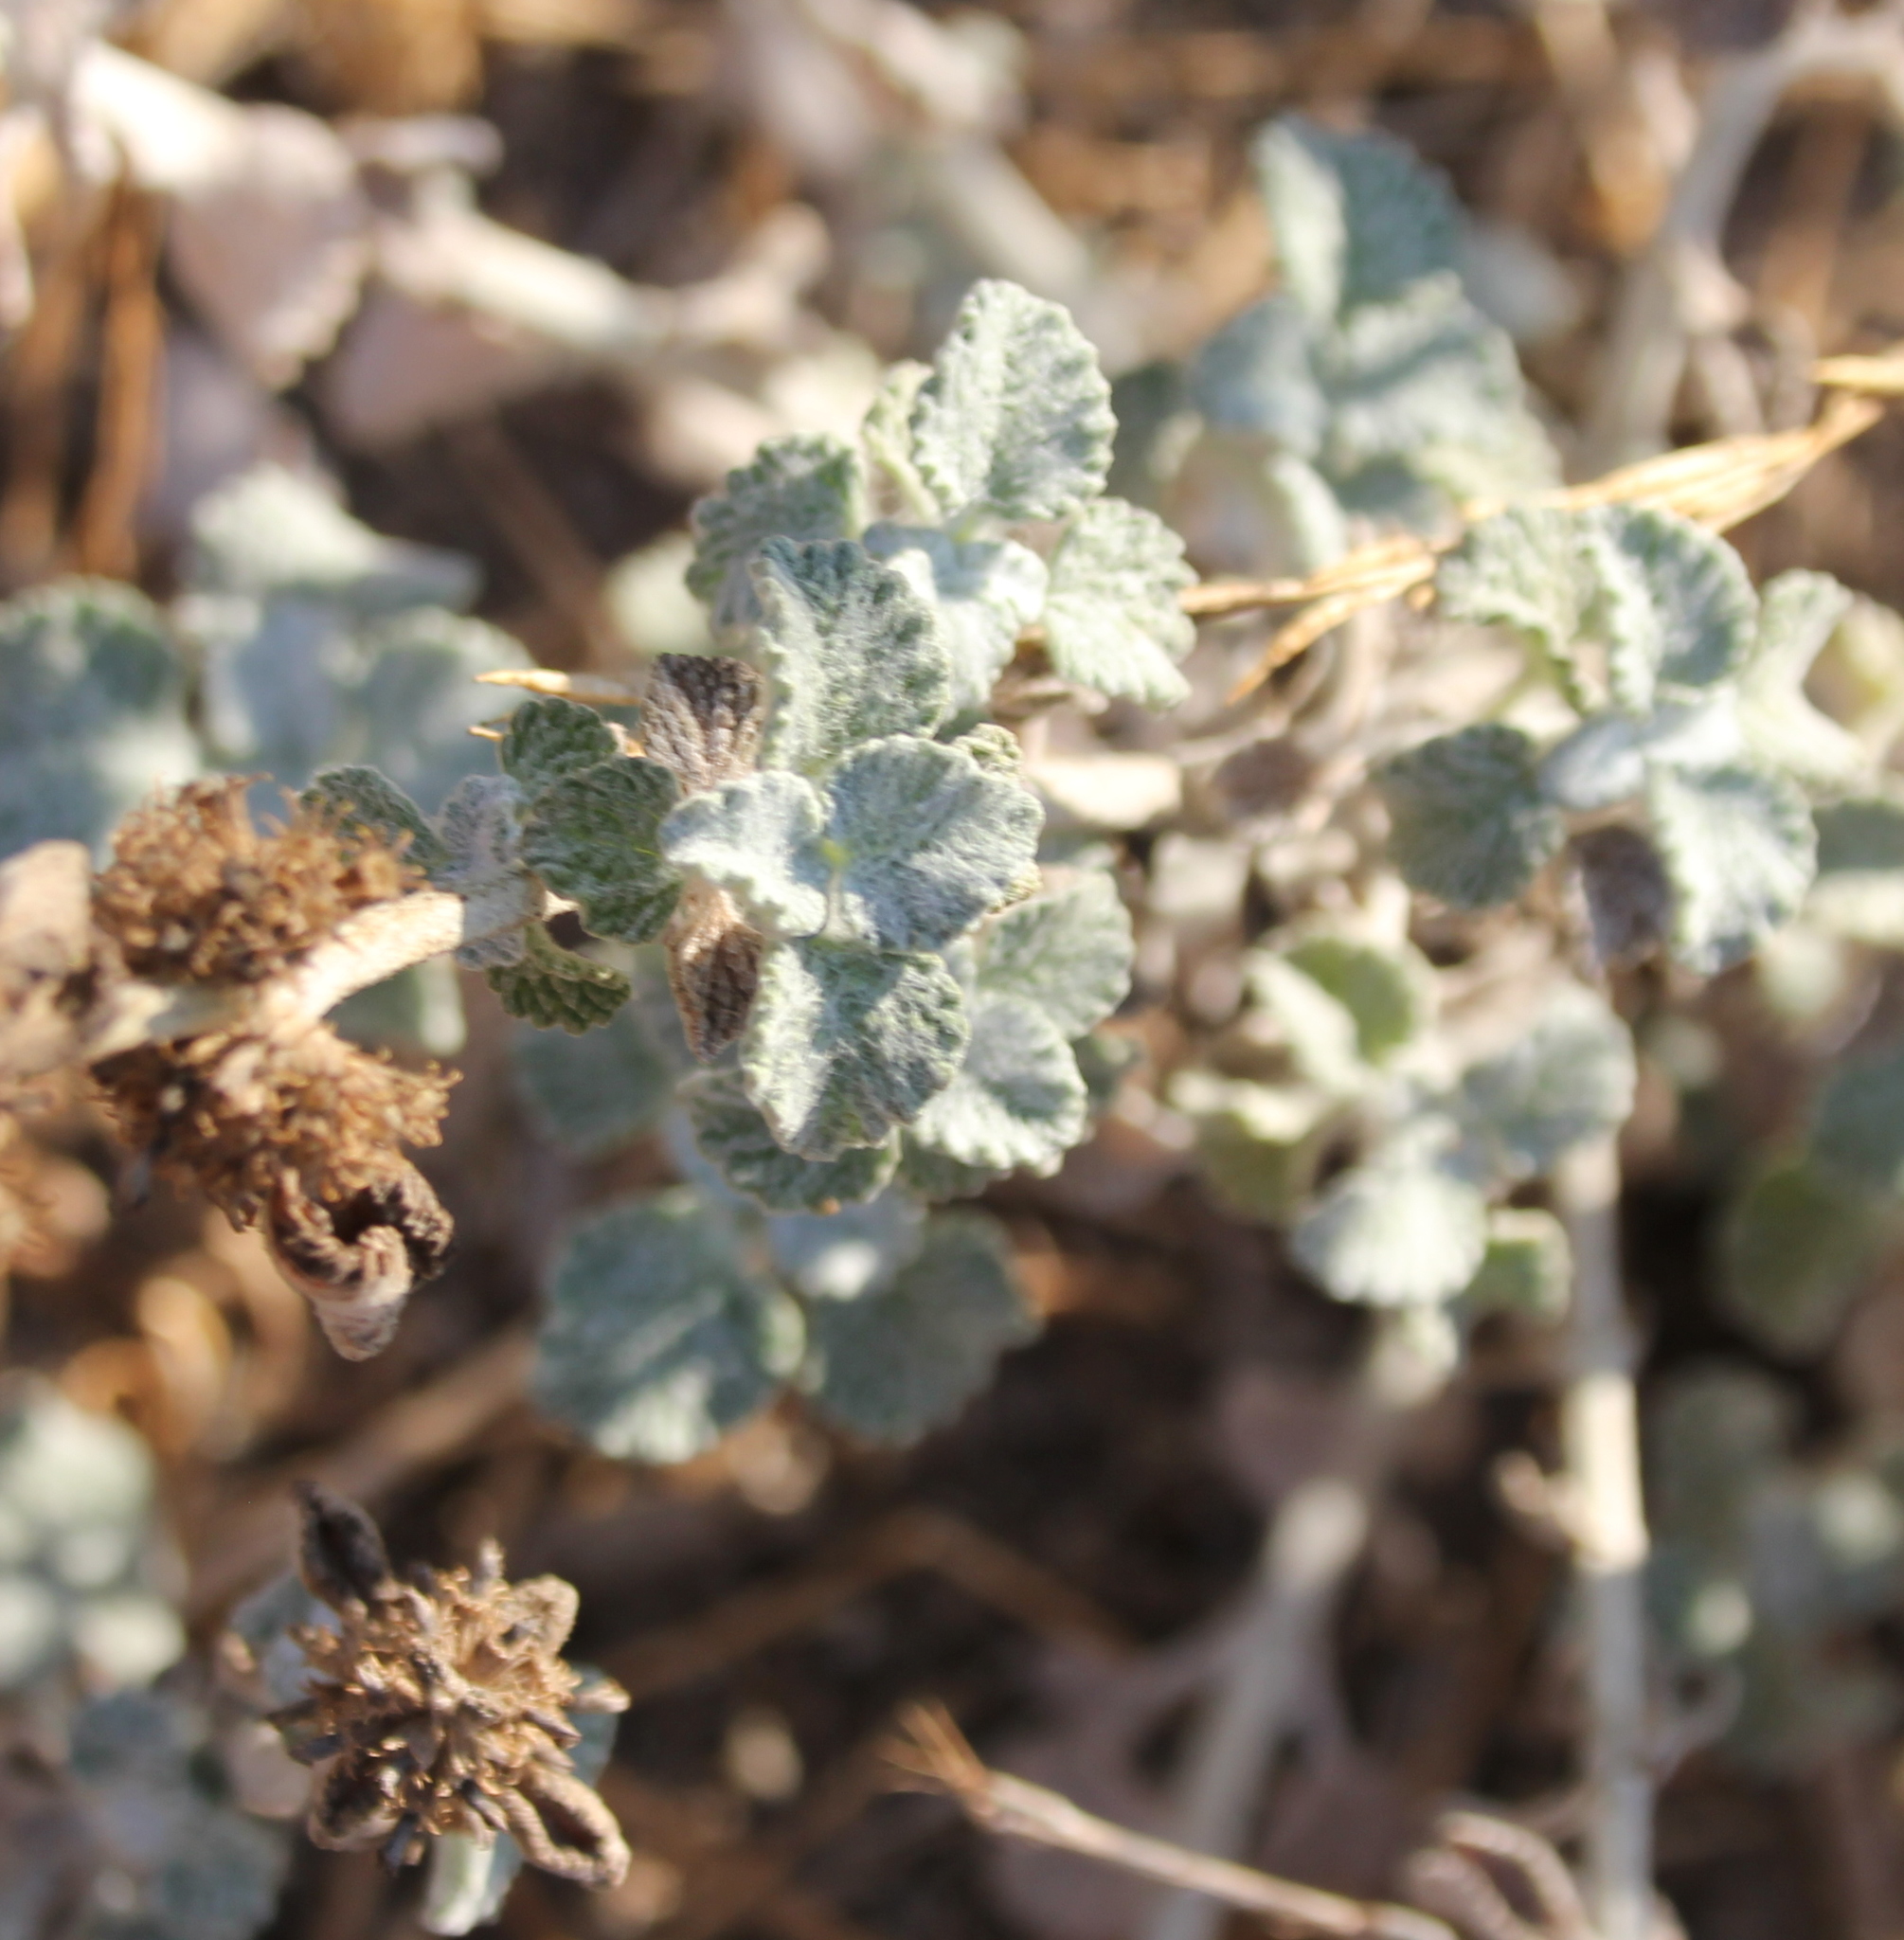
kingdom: Plantae
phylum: Tracheophyta
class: Magnoliopsida
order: Lamiales
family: Lamiaceae
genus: Marrubium
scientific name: Marrubium vulgare
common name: Horehound
